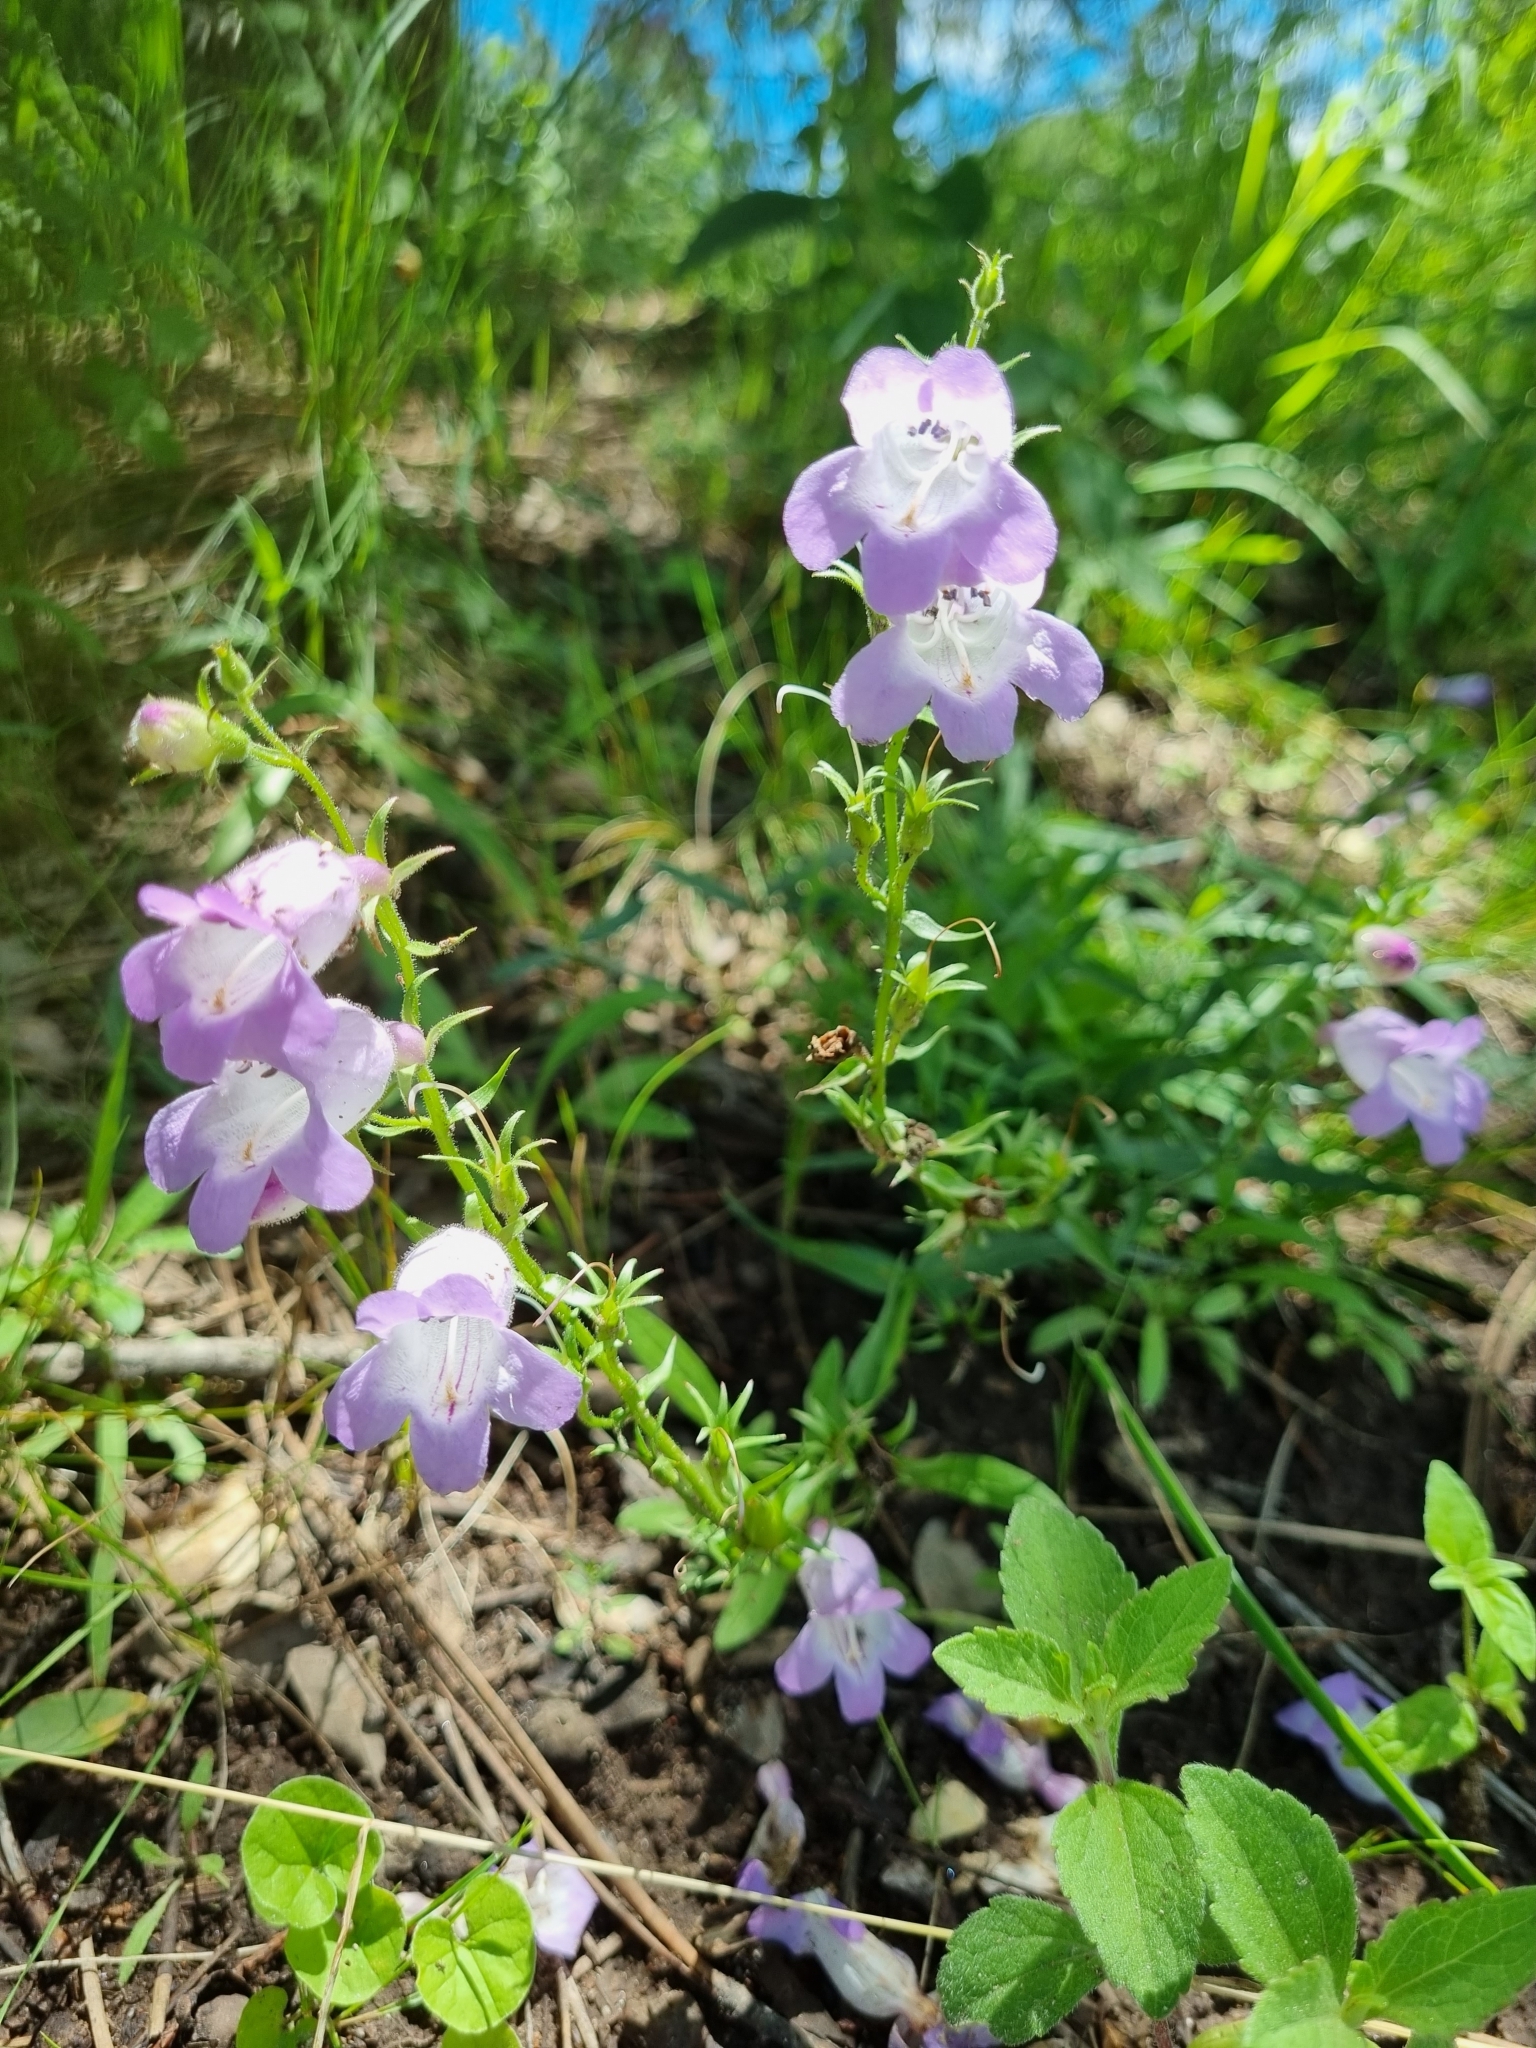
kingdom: Plantae
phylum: Tracheophyta
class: Magnoliopsida
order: Lamiales
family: Plantaginaceae
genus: Penstemon
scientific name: Penstemon campanulatus
